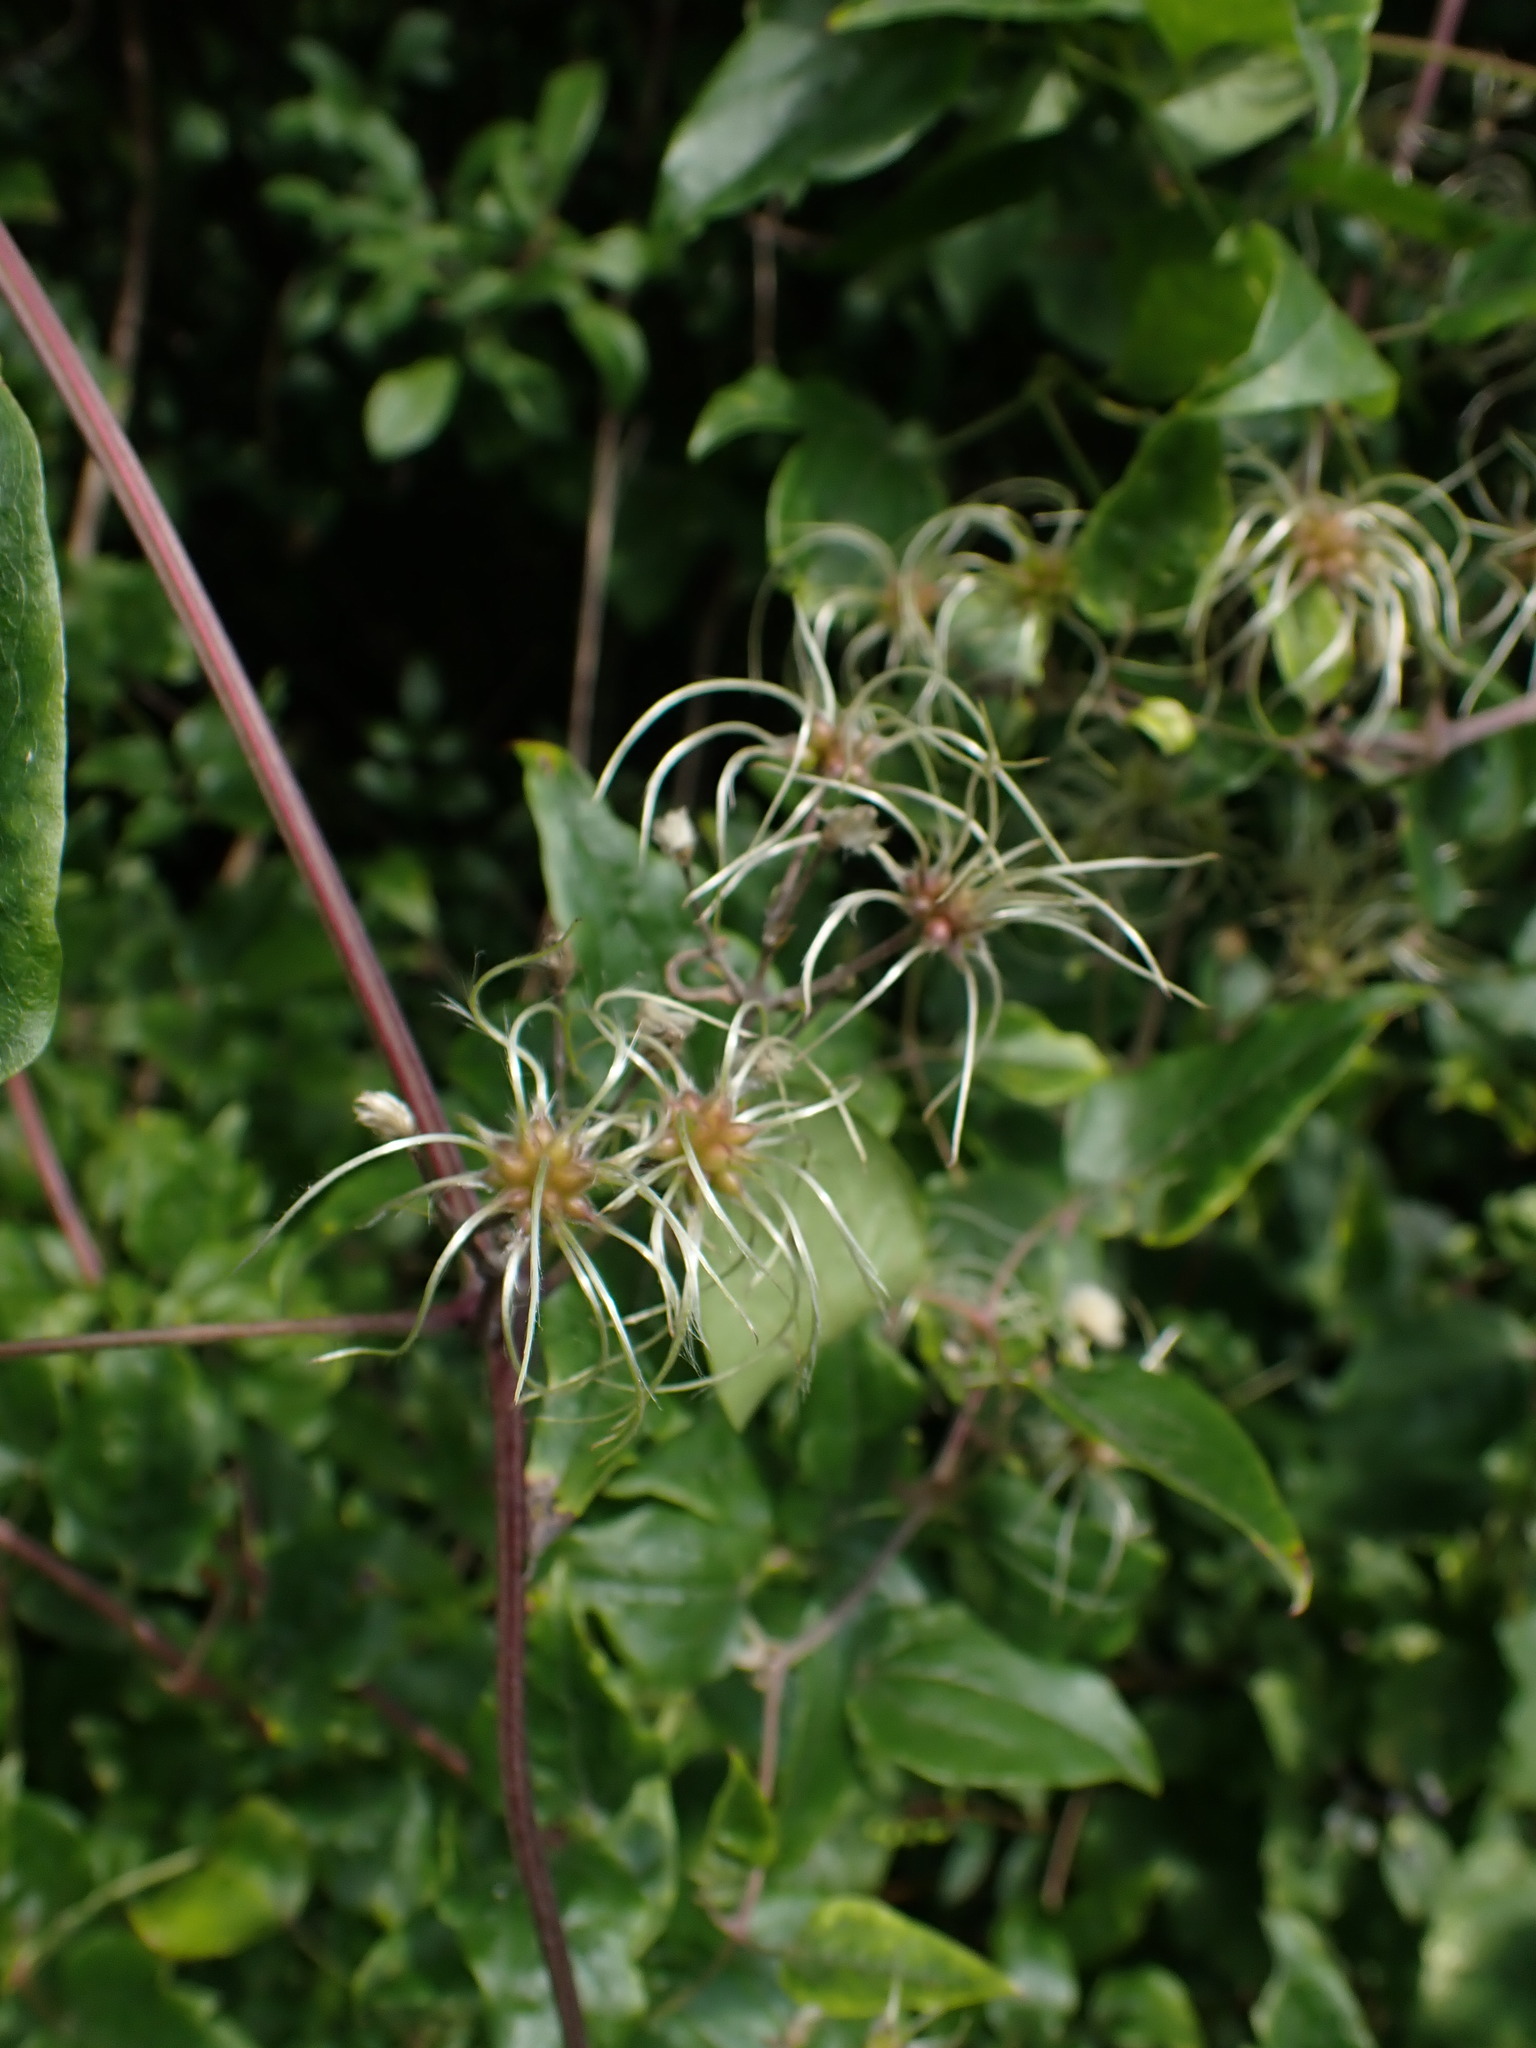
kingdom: Plantae
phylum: Tracheophyta
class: Magnoliopsida
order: Ranunculales
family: Ranunculaceae
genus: Clematis
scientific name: Clematis vitalba
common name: Evergreen clematis
